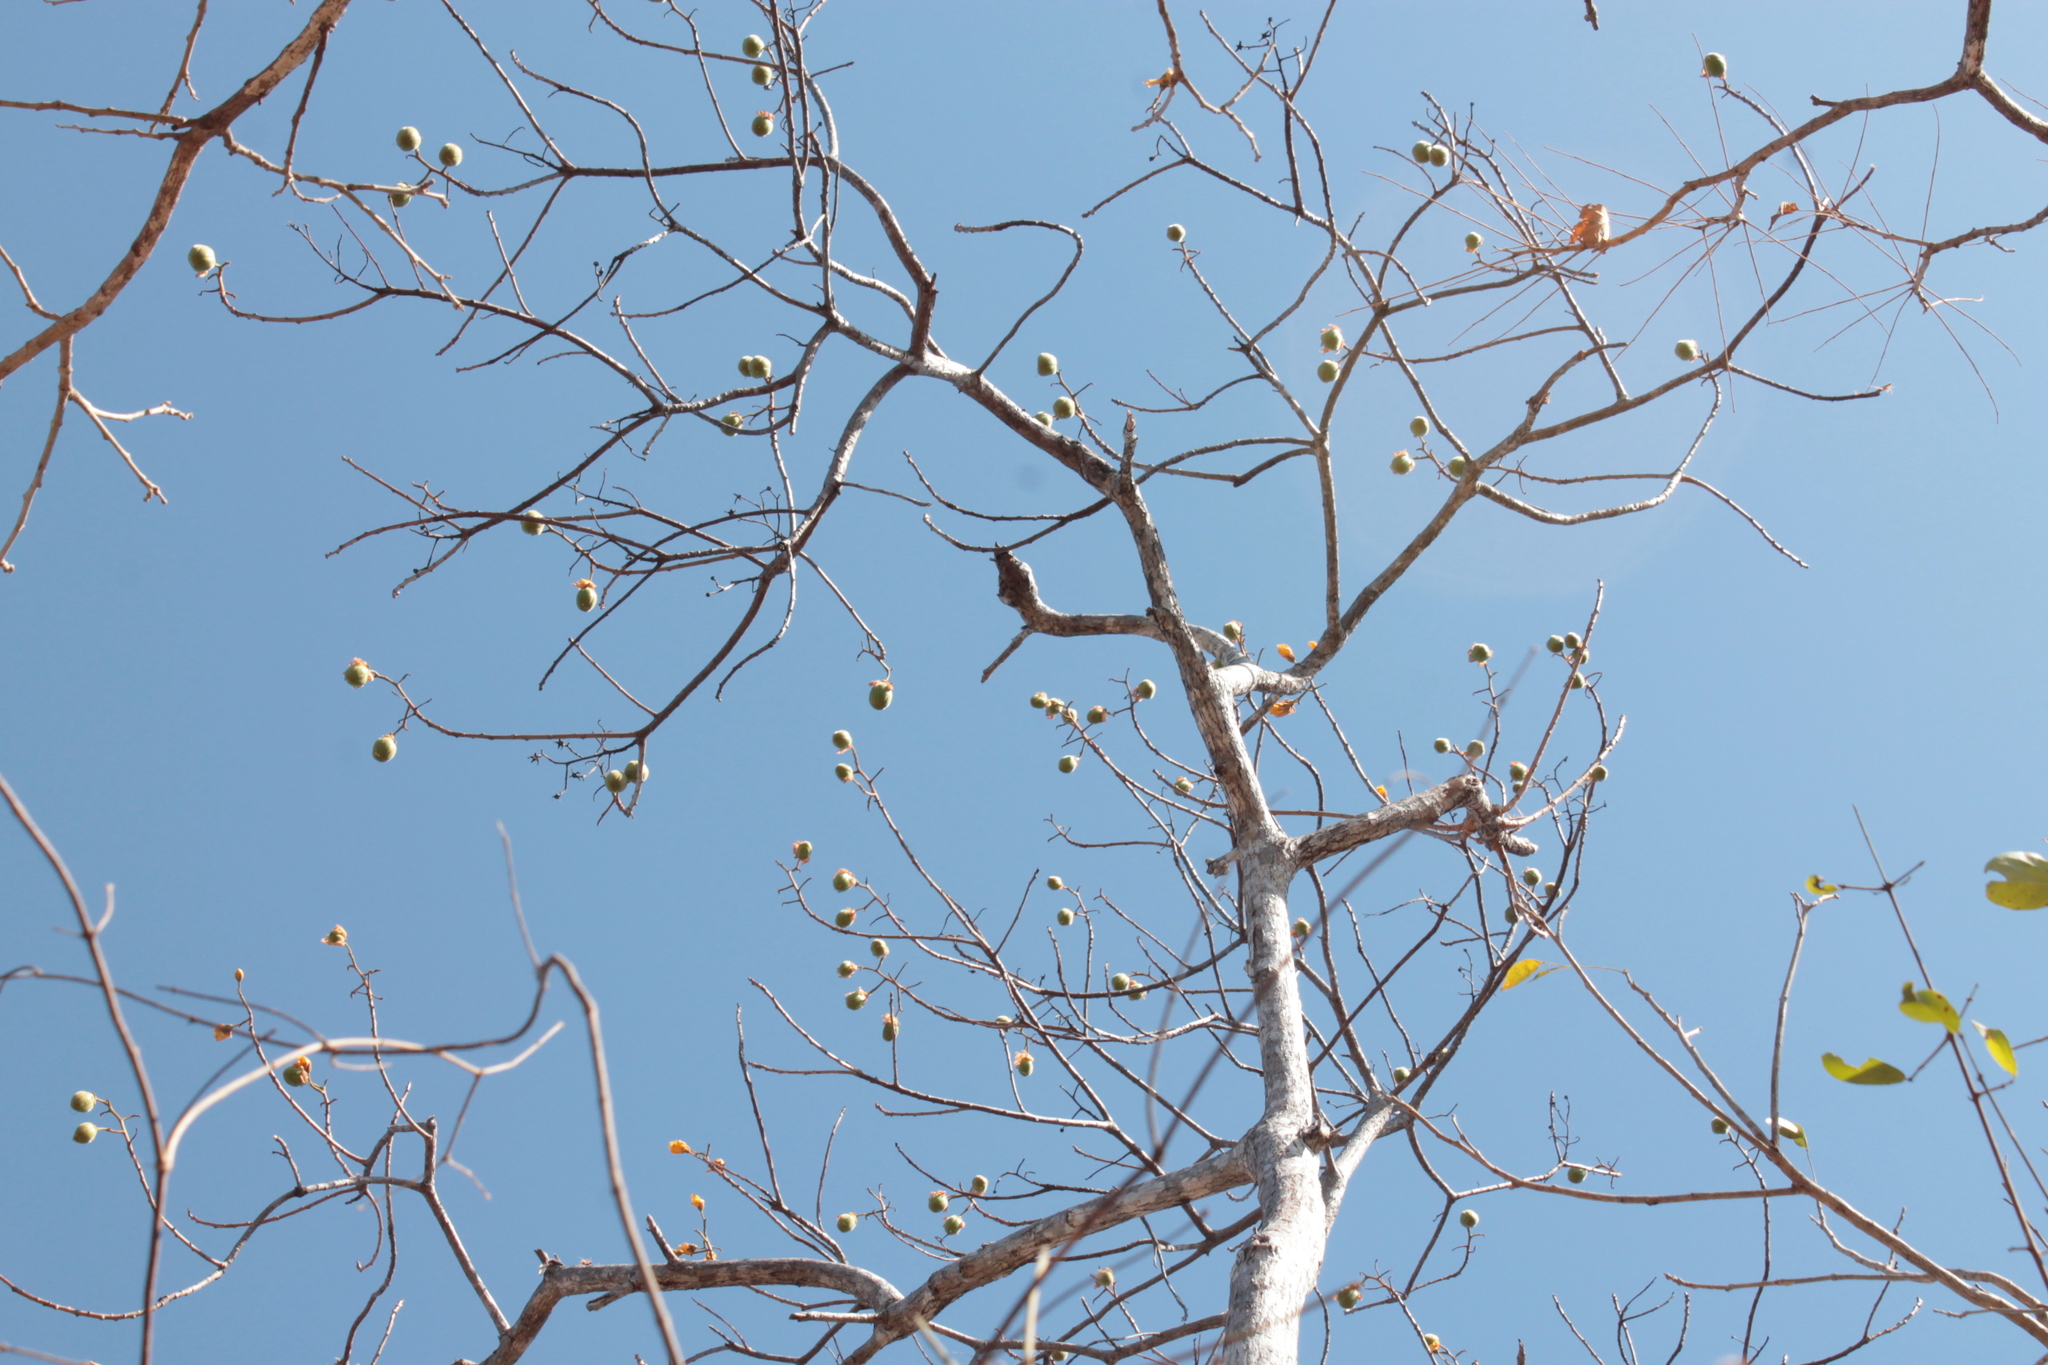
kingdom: Plantae
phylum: Tracheophyta
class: Magnoliopsida
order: Malvales
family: Cochlospermaceae
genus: Cochlospermum
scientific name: Cochlospermum vitifolium
